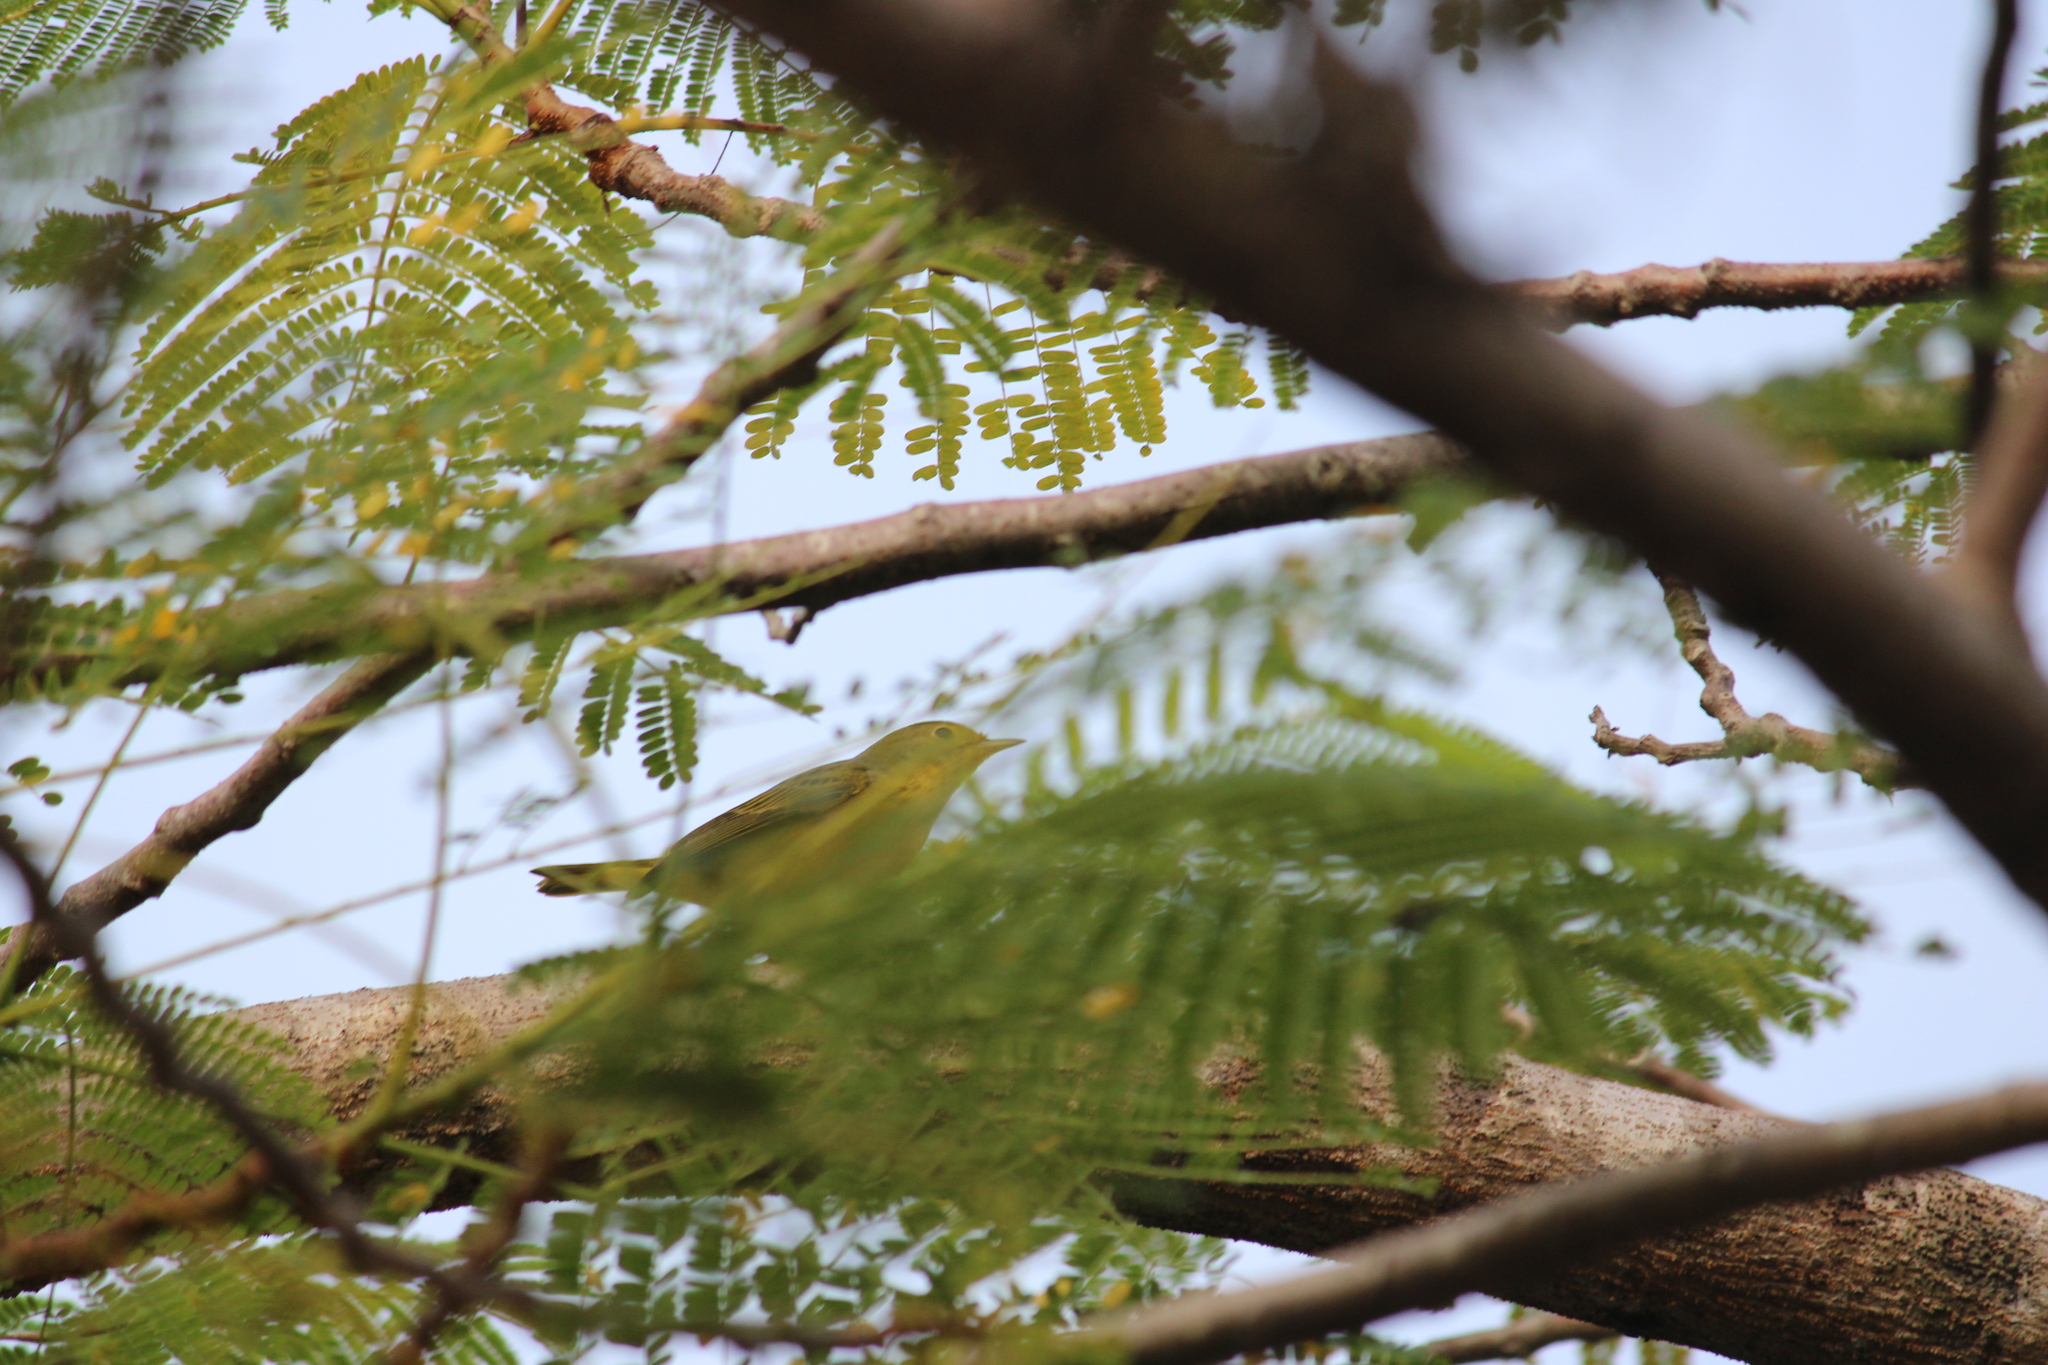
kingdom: Animalia
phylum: Chordata
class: Aves
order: Passeriformes
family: Parulidae
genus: Setophaga
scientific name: Setophaga petechia
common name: Yellow warbler
